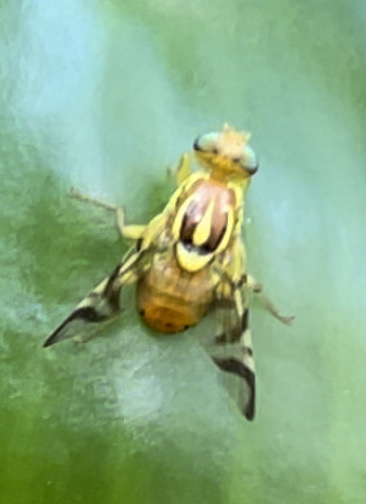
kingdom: Animalia
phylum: Arthropoda
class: Insecta
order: Diptera
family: Tephritidae
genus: Zonosemata
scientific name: Zonosemata electa
